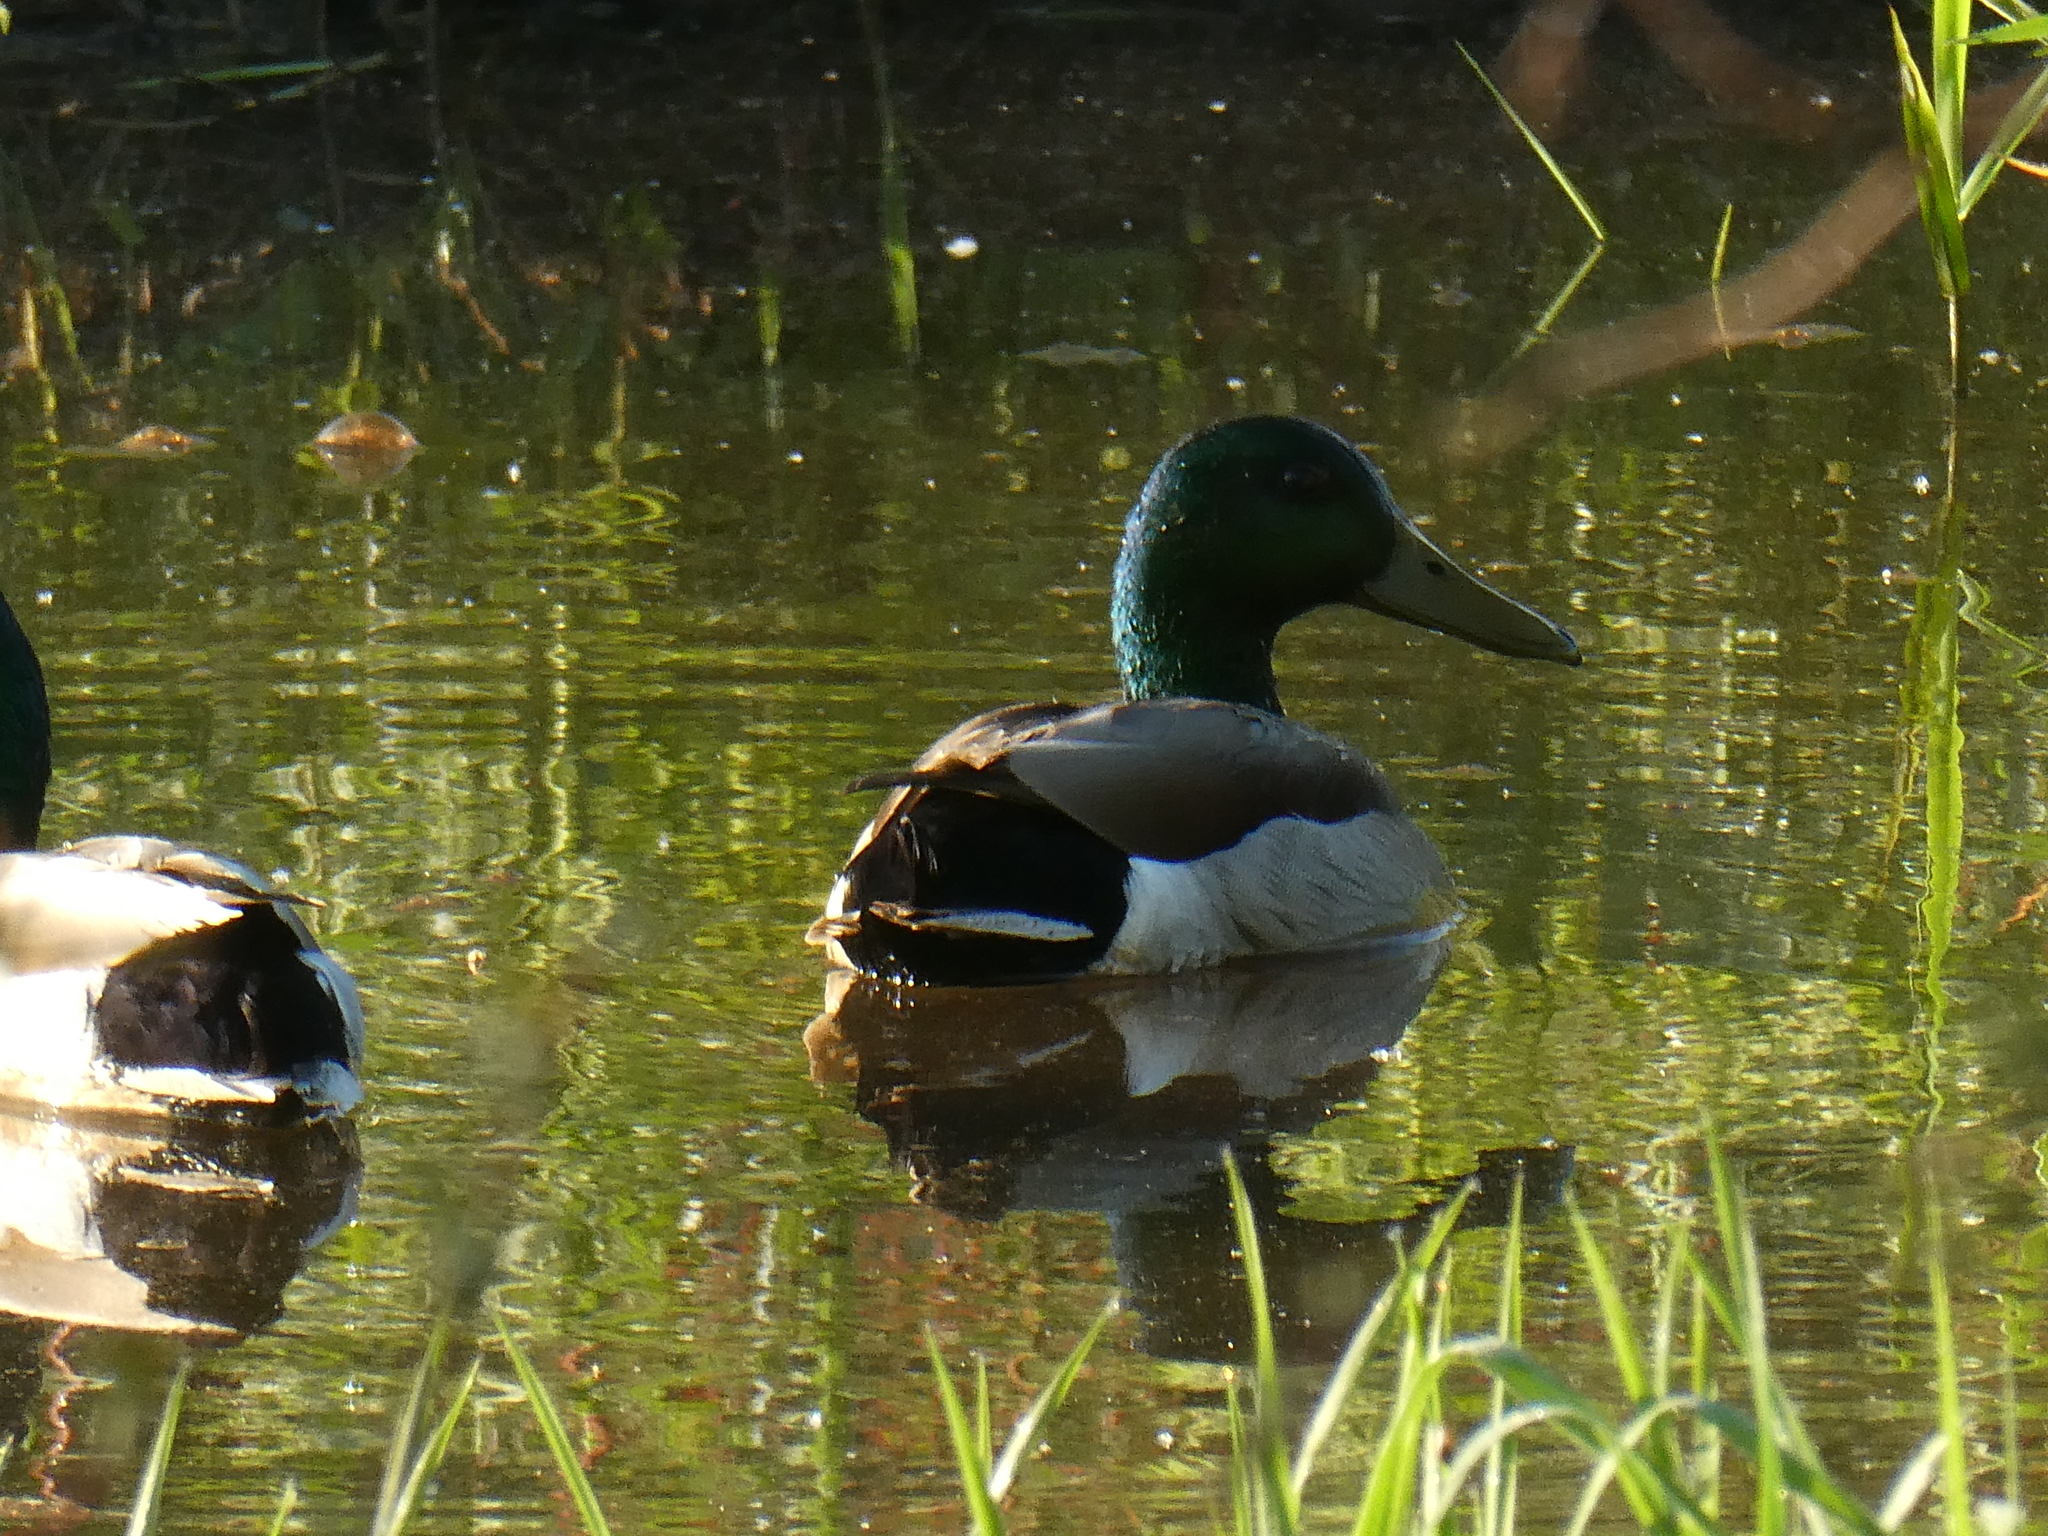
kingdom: Animalia
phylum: Chordata
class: Aves
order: Anseriformes
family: Anatidae
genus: Anas
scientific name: Anas platyrhynchos
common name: Mallard
